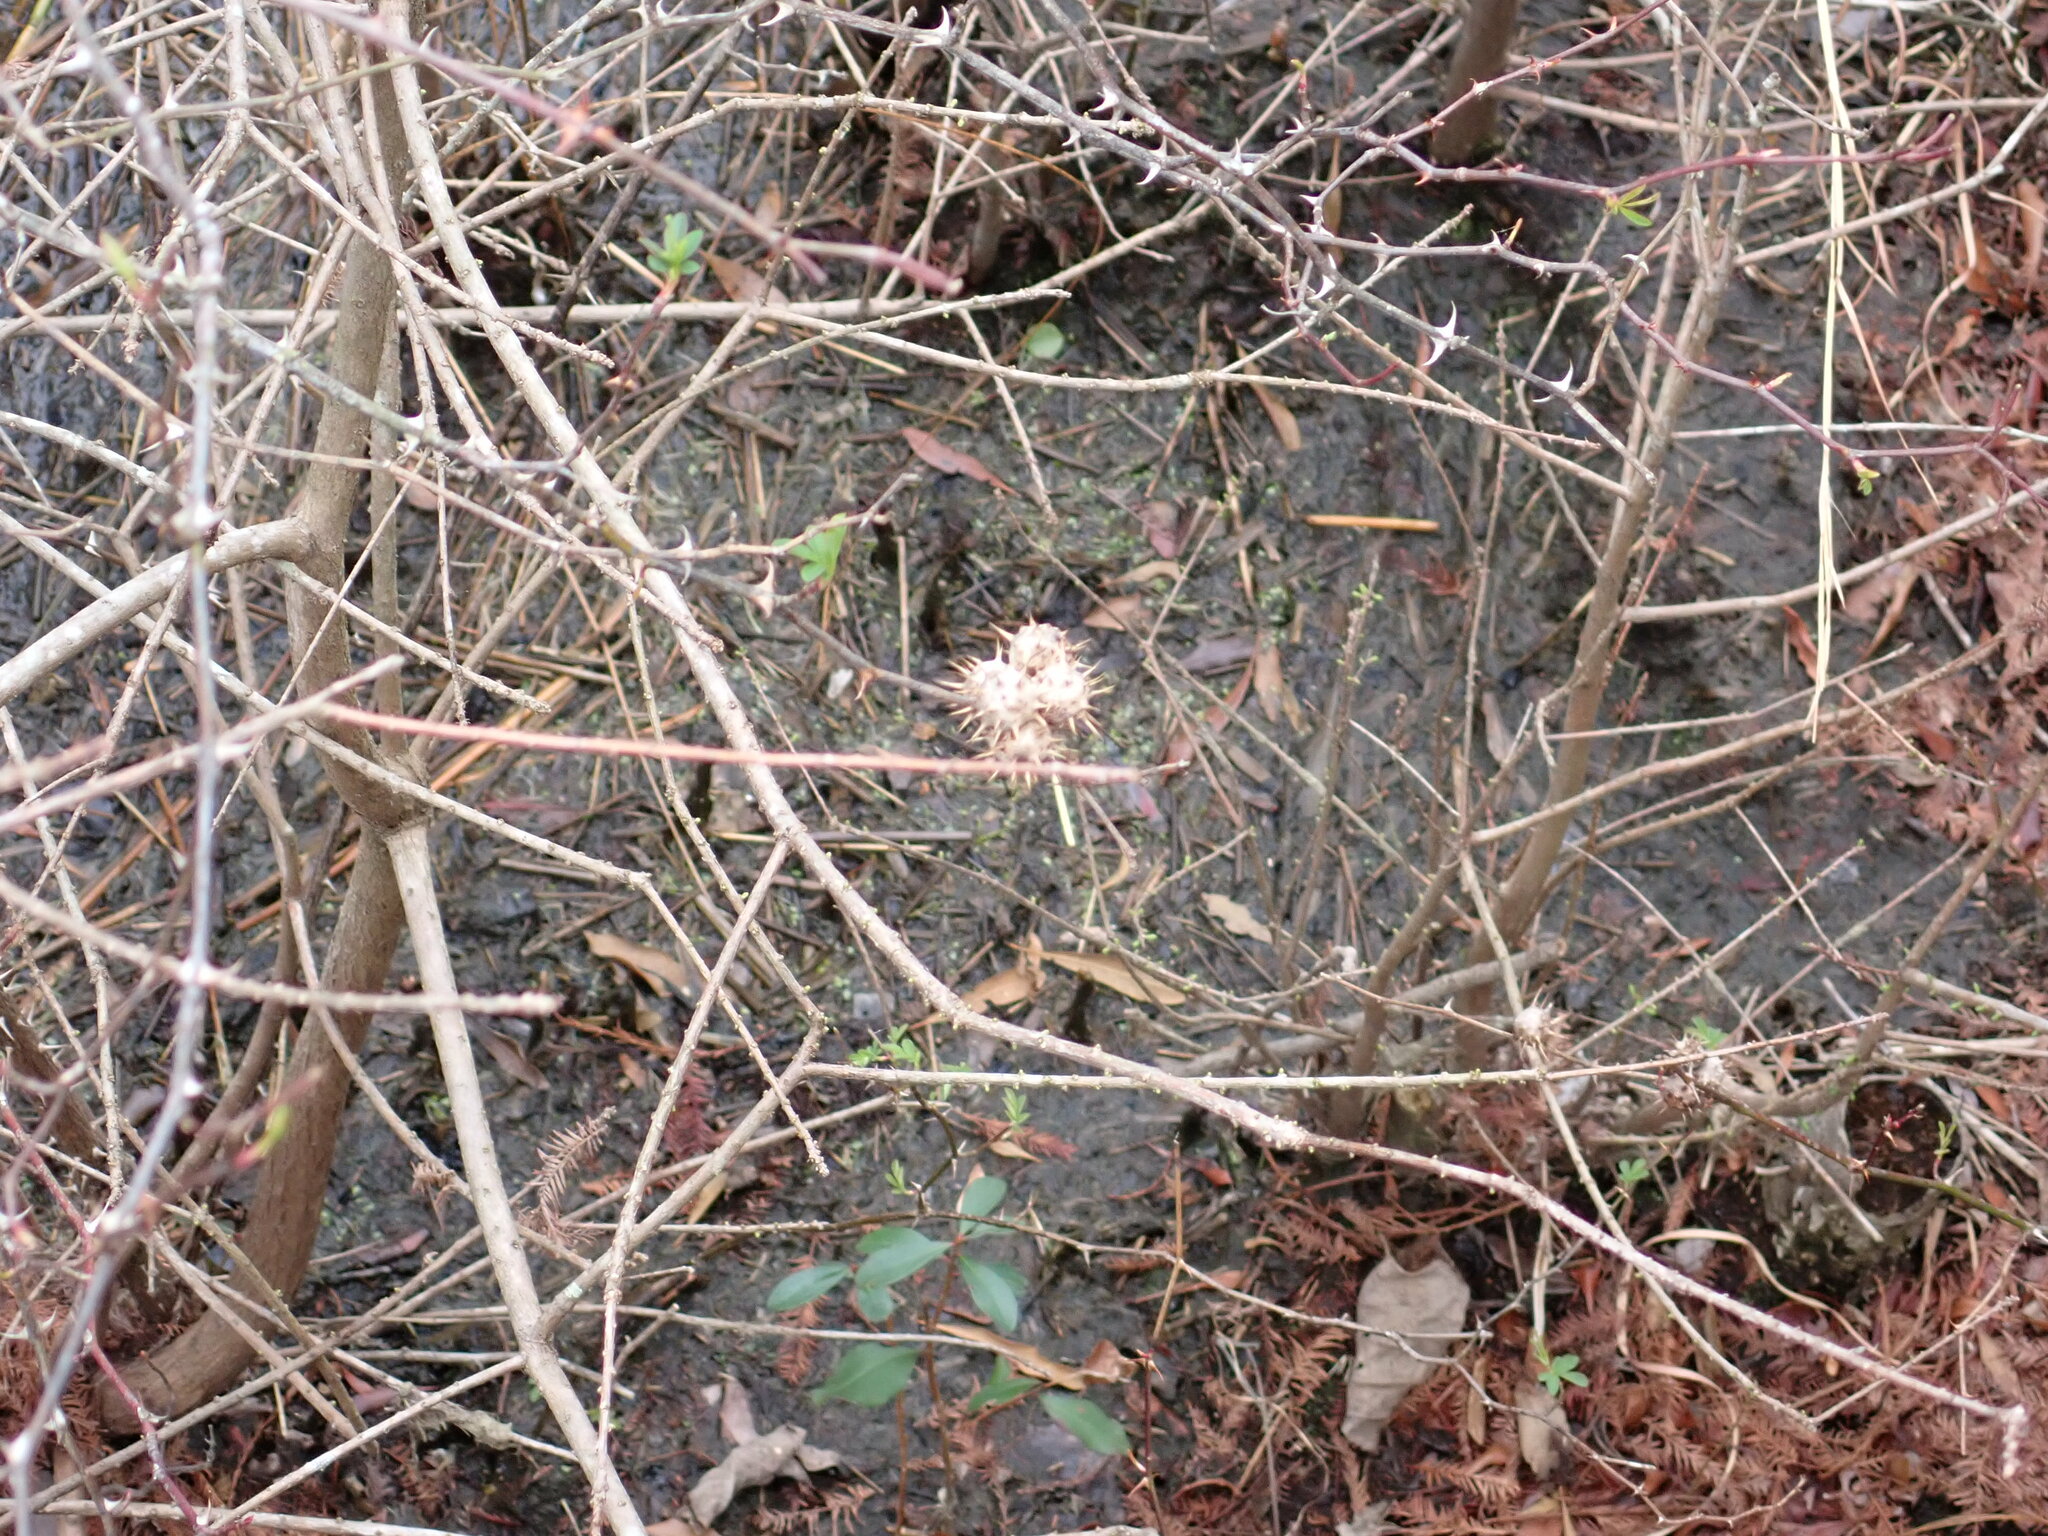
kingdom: Animalia
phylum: Arthropoda
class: Insecta
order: Hymenoptera
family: Cynipidae
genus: Diplolepis
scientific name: Diplolepis bicolor
